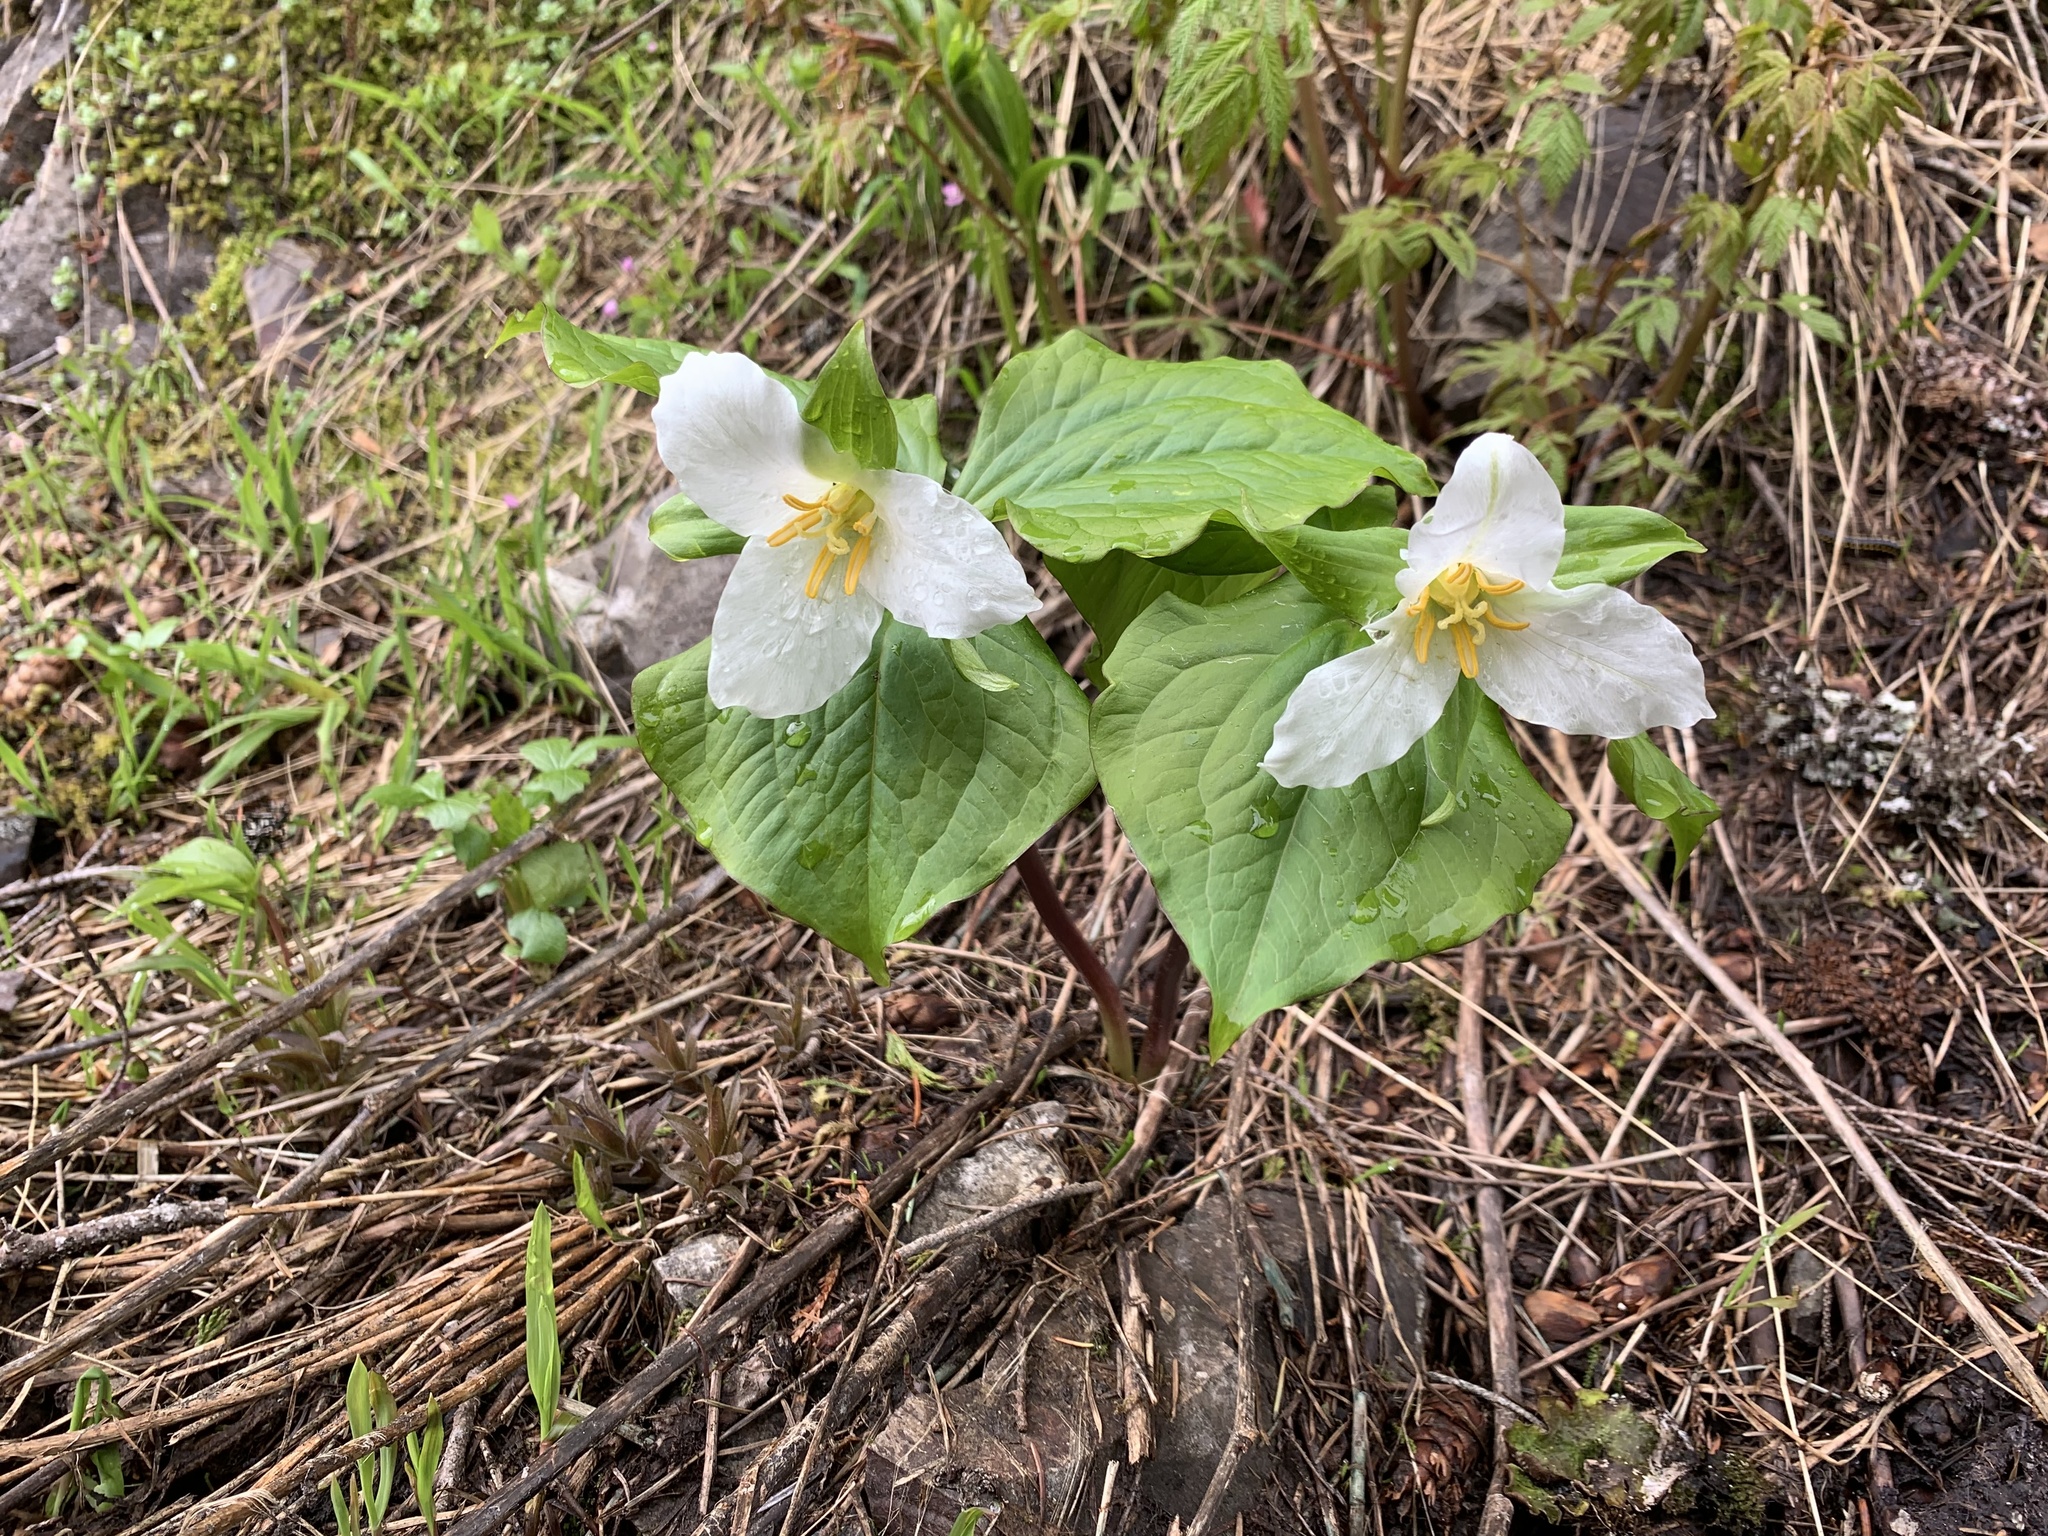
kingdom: Plantae
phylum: Tracheophyta
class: Liliopsida
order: Liliales
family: Melanthiaceae
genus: Trillium
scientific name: Trillium ovatum
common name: Pacific trillium
